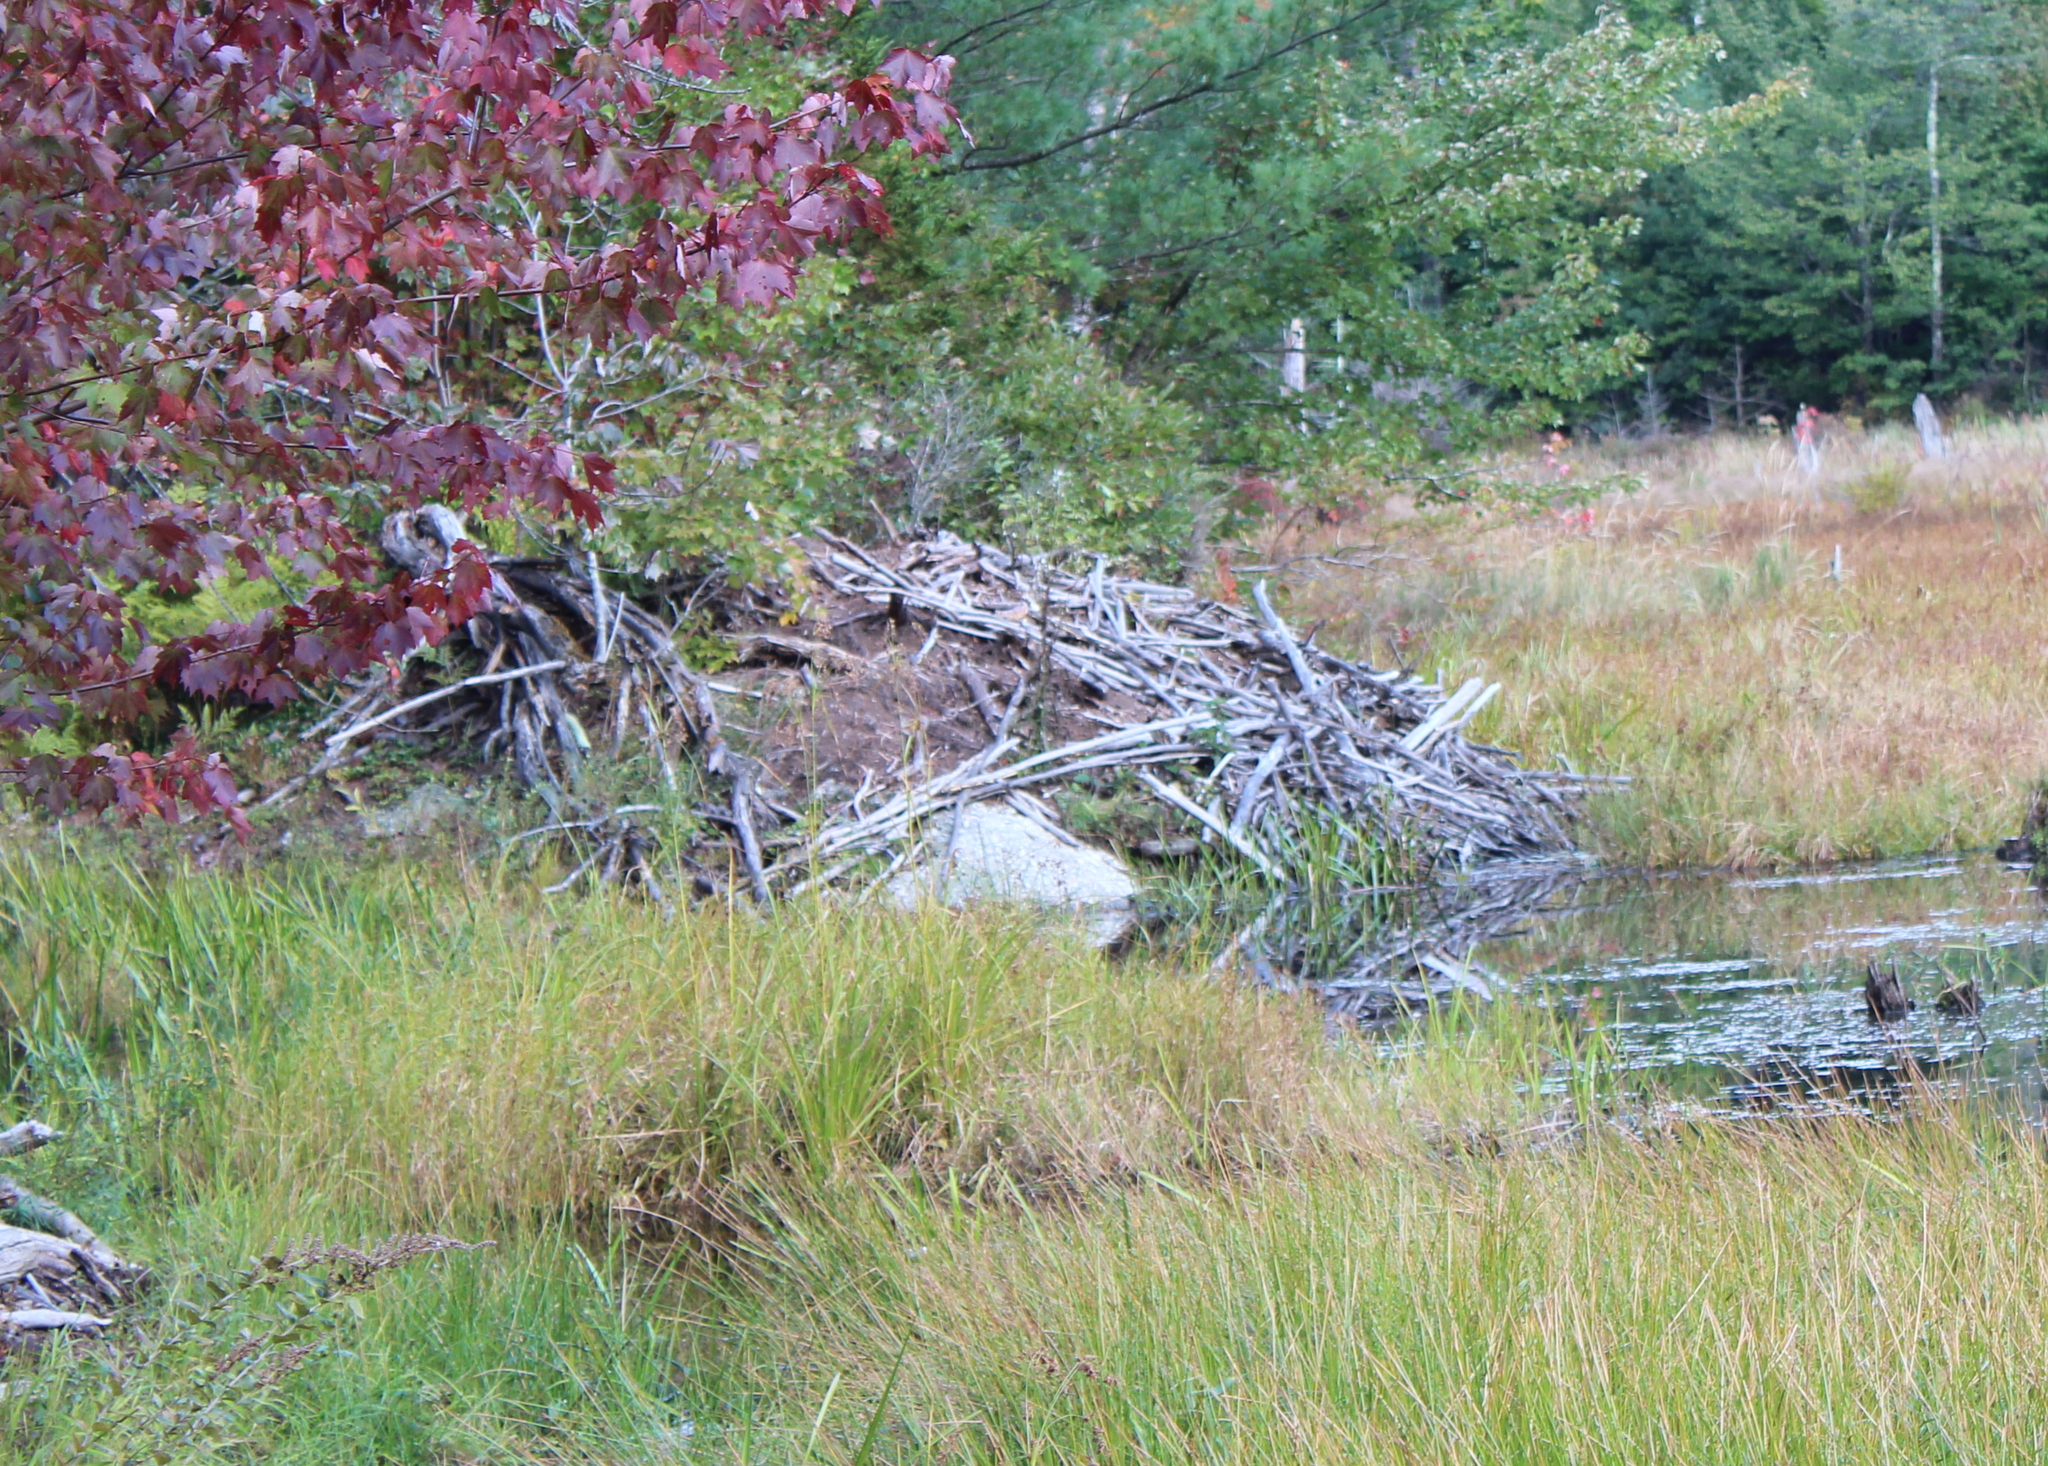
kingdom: Animalia
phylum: Chordata
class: Mammalia
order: Rodentia
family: Castoridae
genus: Castor
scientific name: Castor canadensis
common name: American beaver
